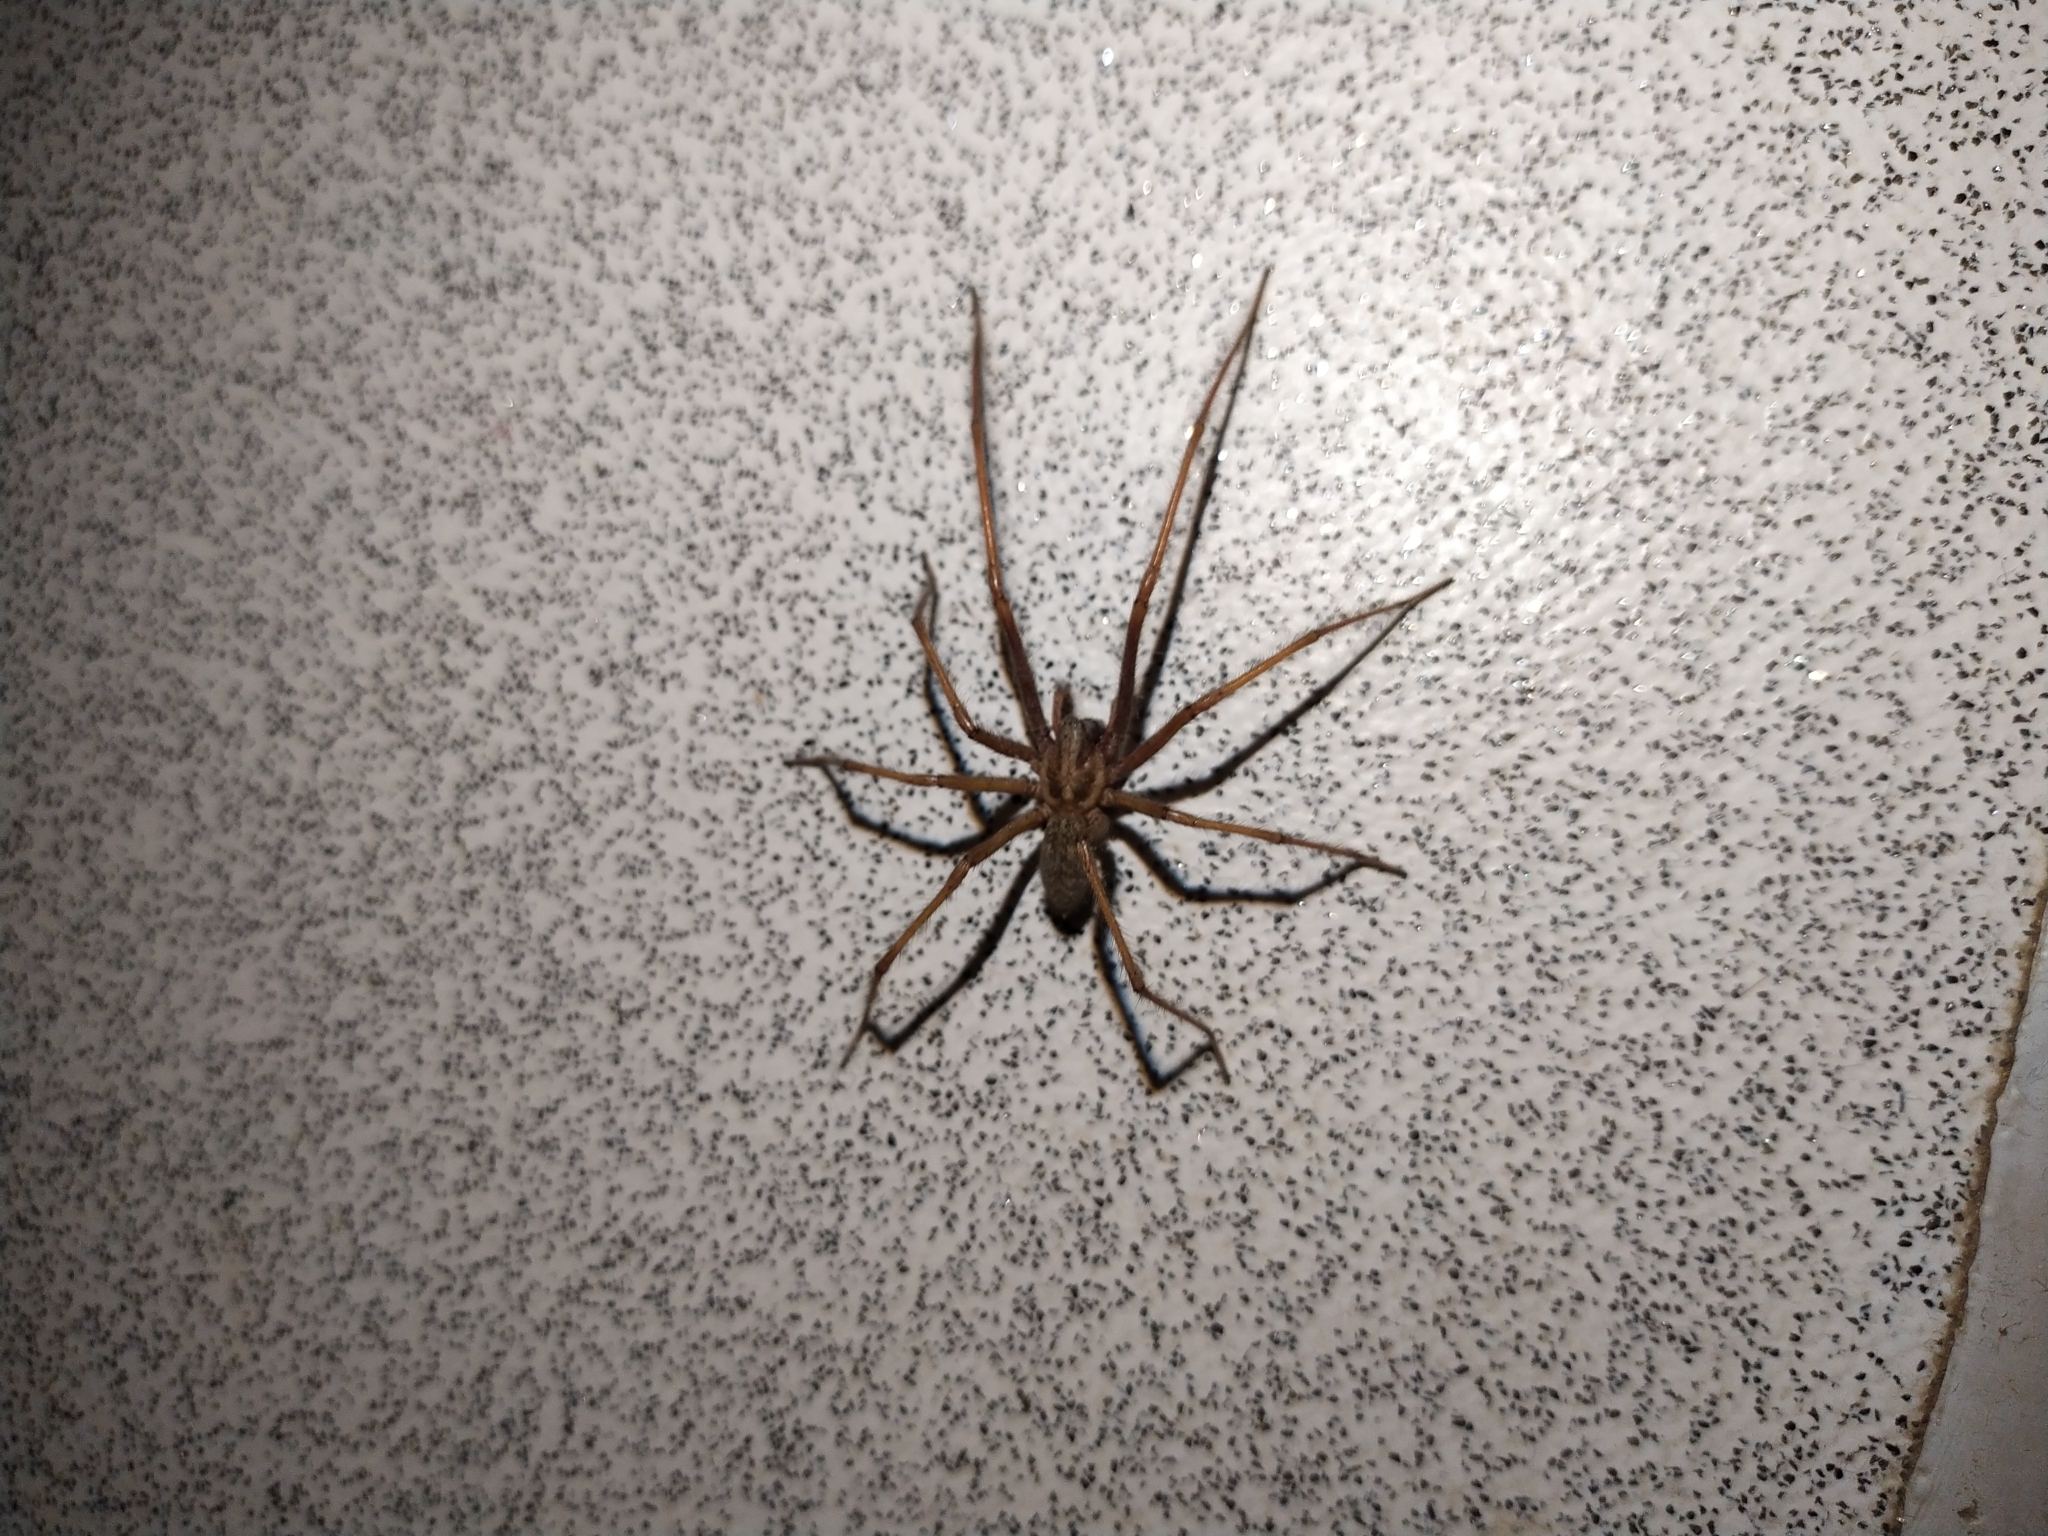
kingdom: Animalia
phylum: Arthropoda
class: Arachnida
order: Araneae
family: Agelenidae
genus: Eratigena
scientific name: Eratigena atrica
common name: Giant house spider
